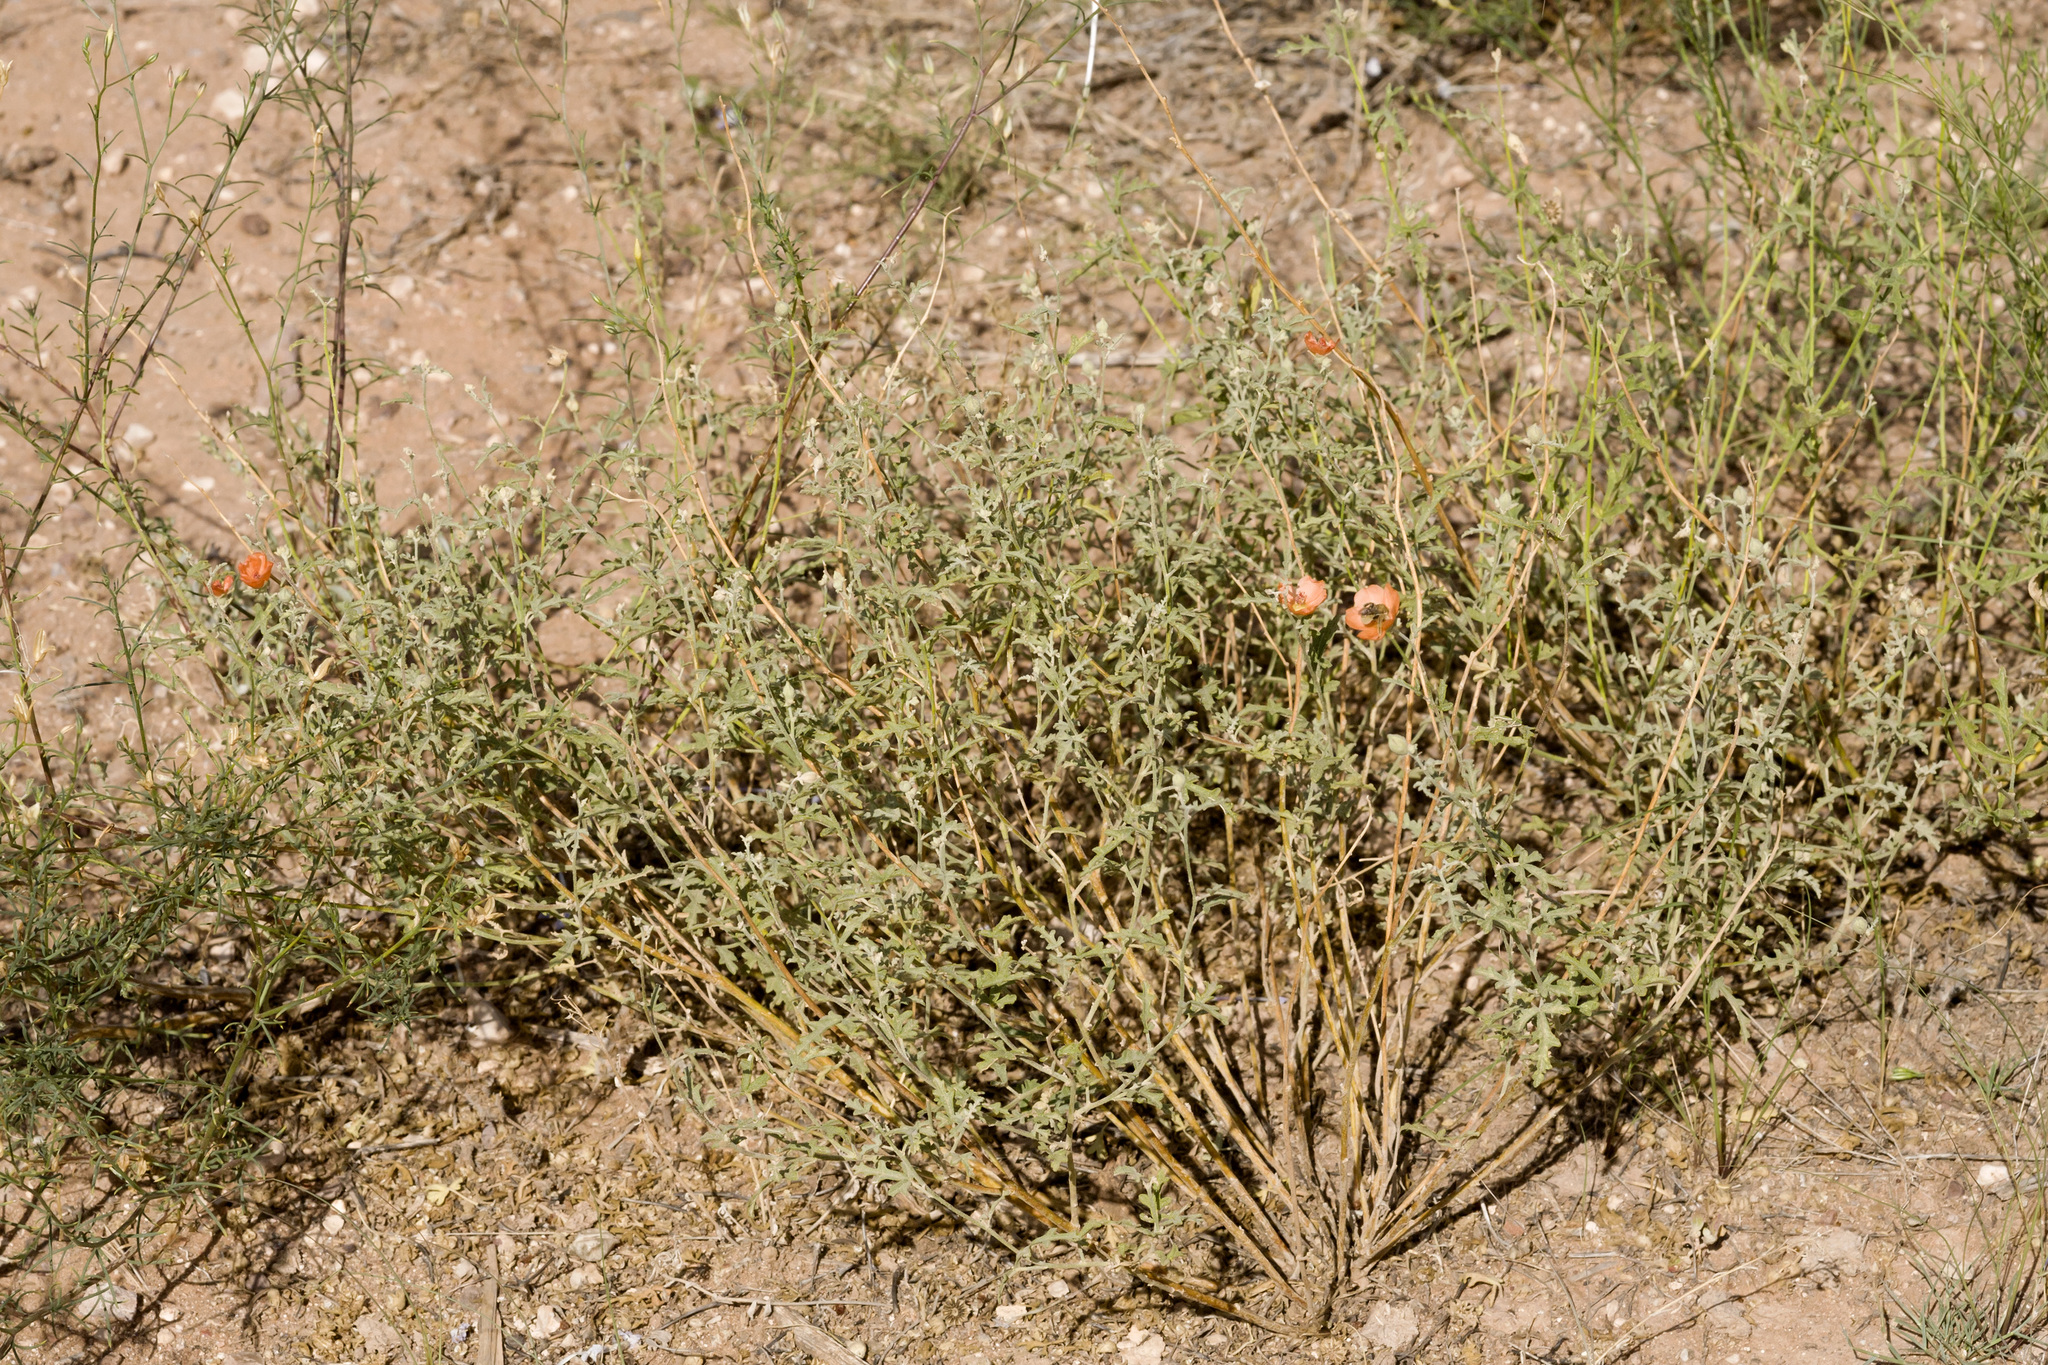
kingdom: Plantae
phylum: Tracheophyta
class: Magnoliopsida
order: Malvales
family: Malvaceae
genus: Sphaeralcea
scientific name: Sphaeralcea hastulata
